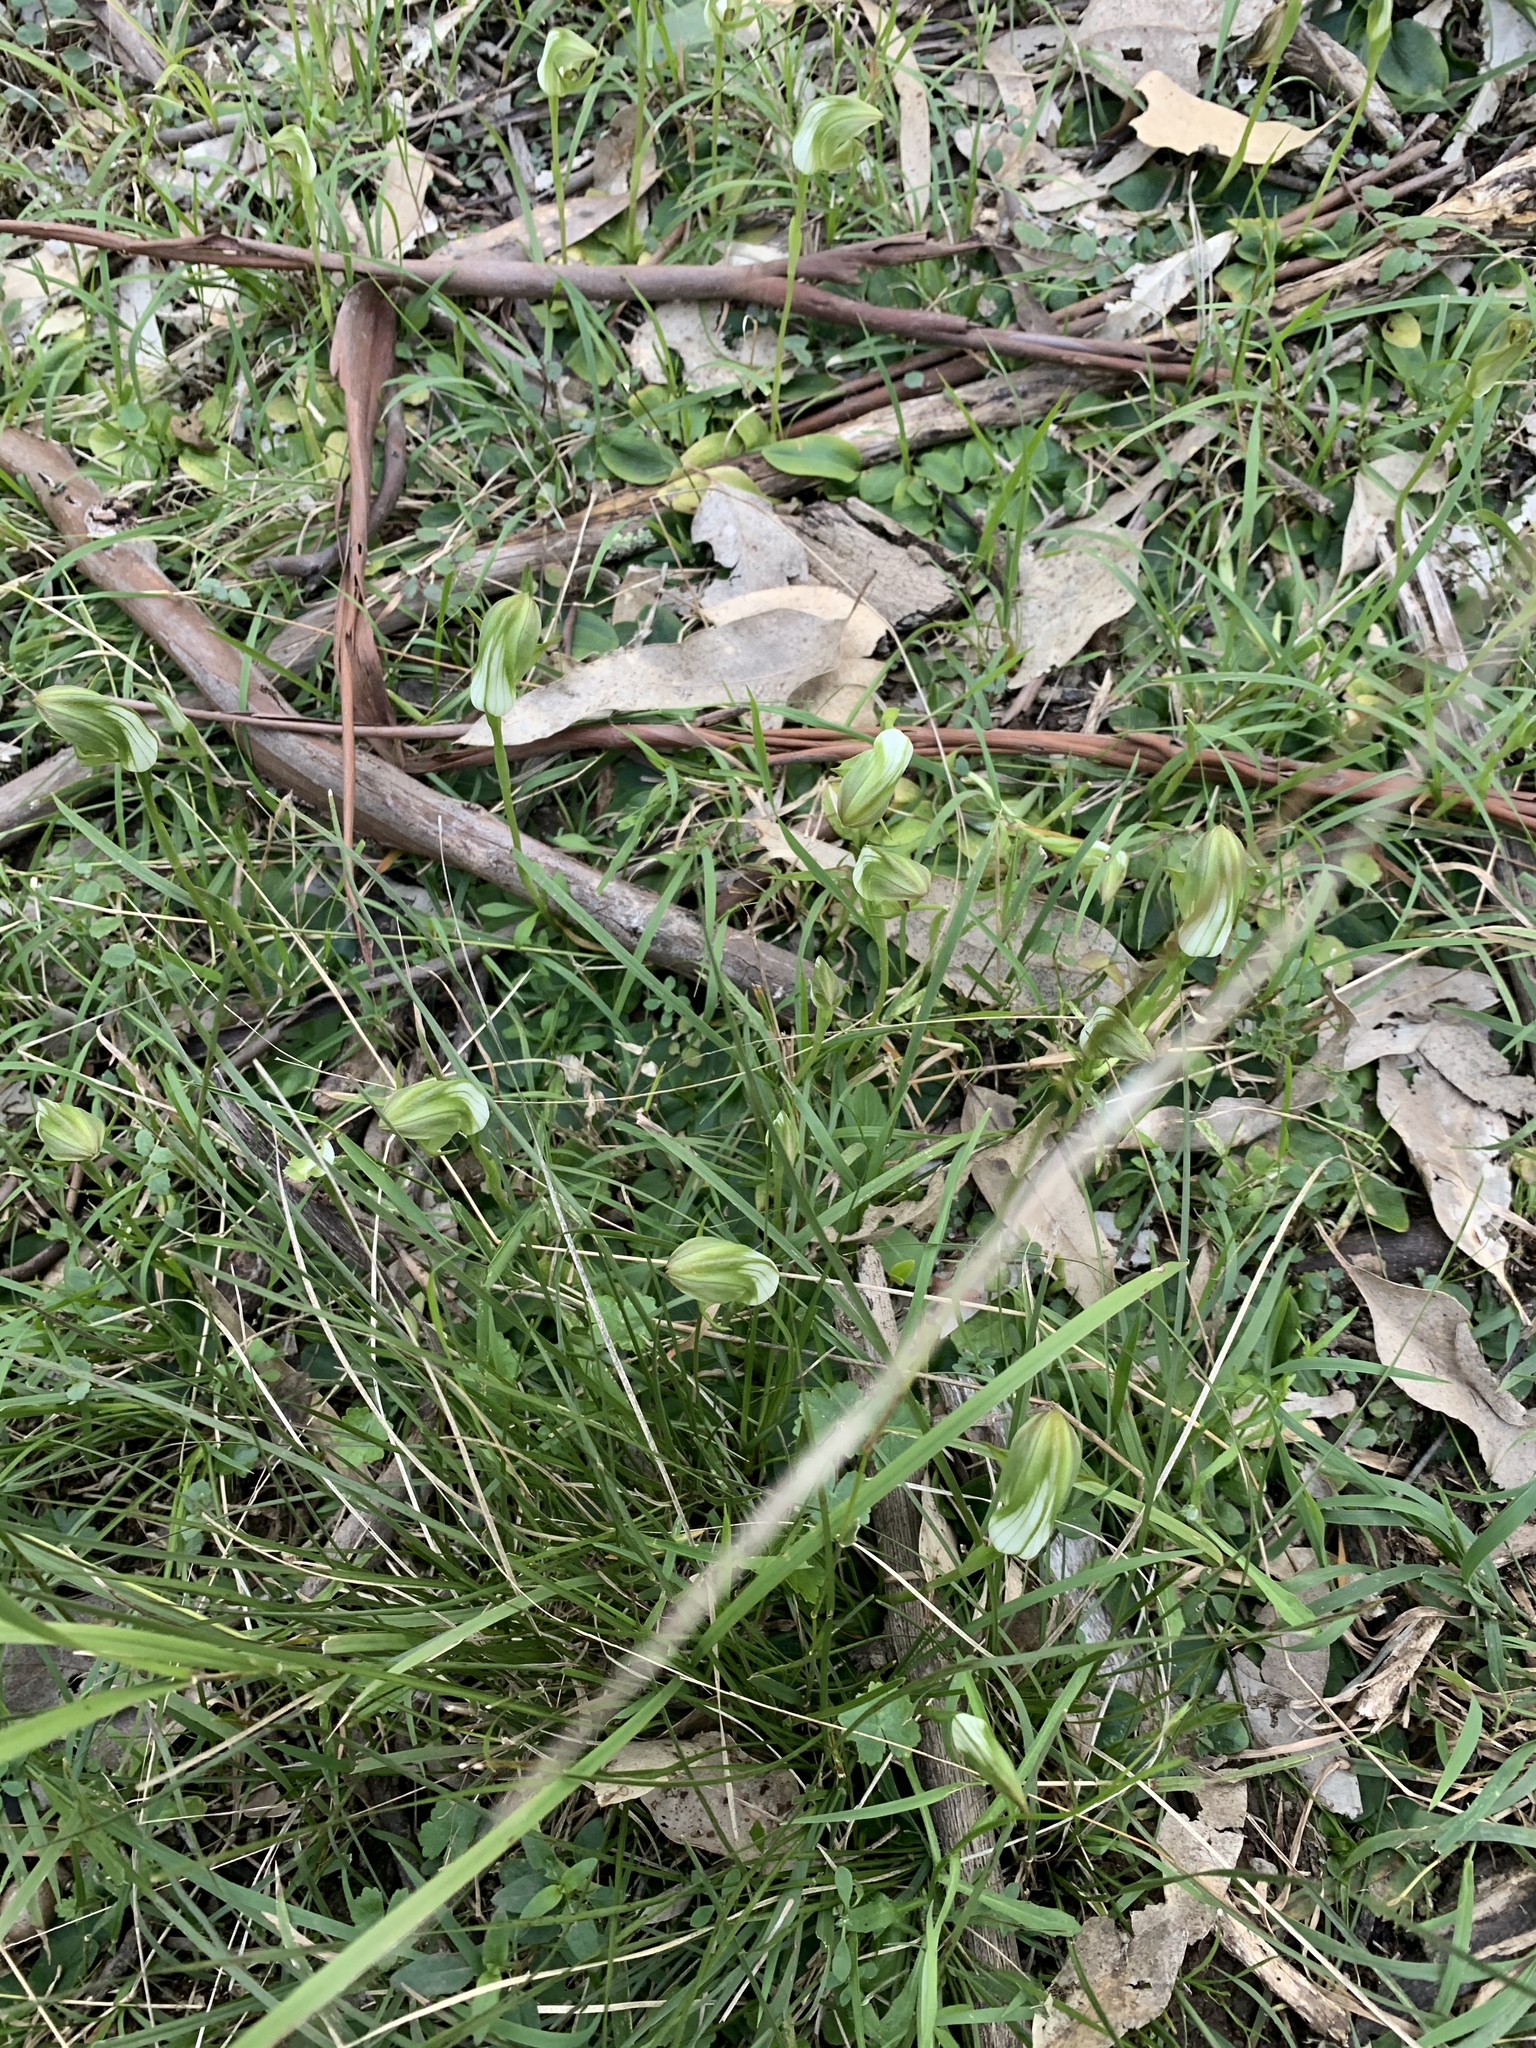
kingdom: Plantae
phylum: Tracheophyta
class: Liliopsida
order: Asparagales
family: Orchidaceae
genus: Pterostylis
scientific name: Pterostylis curta
